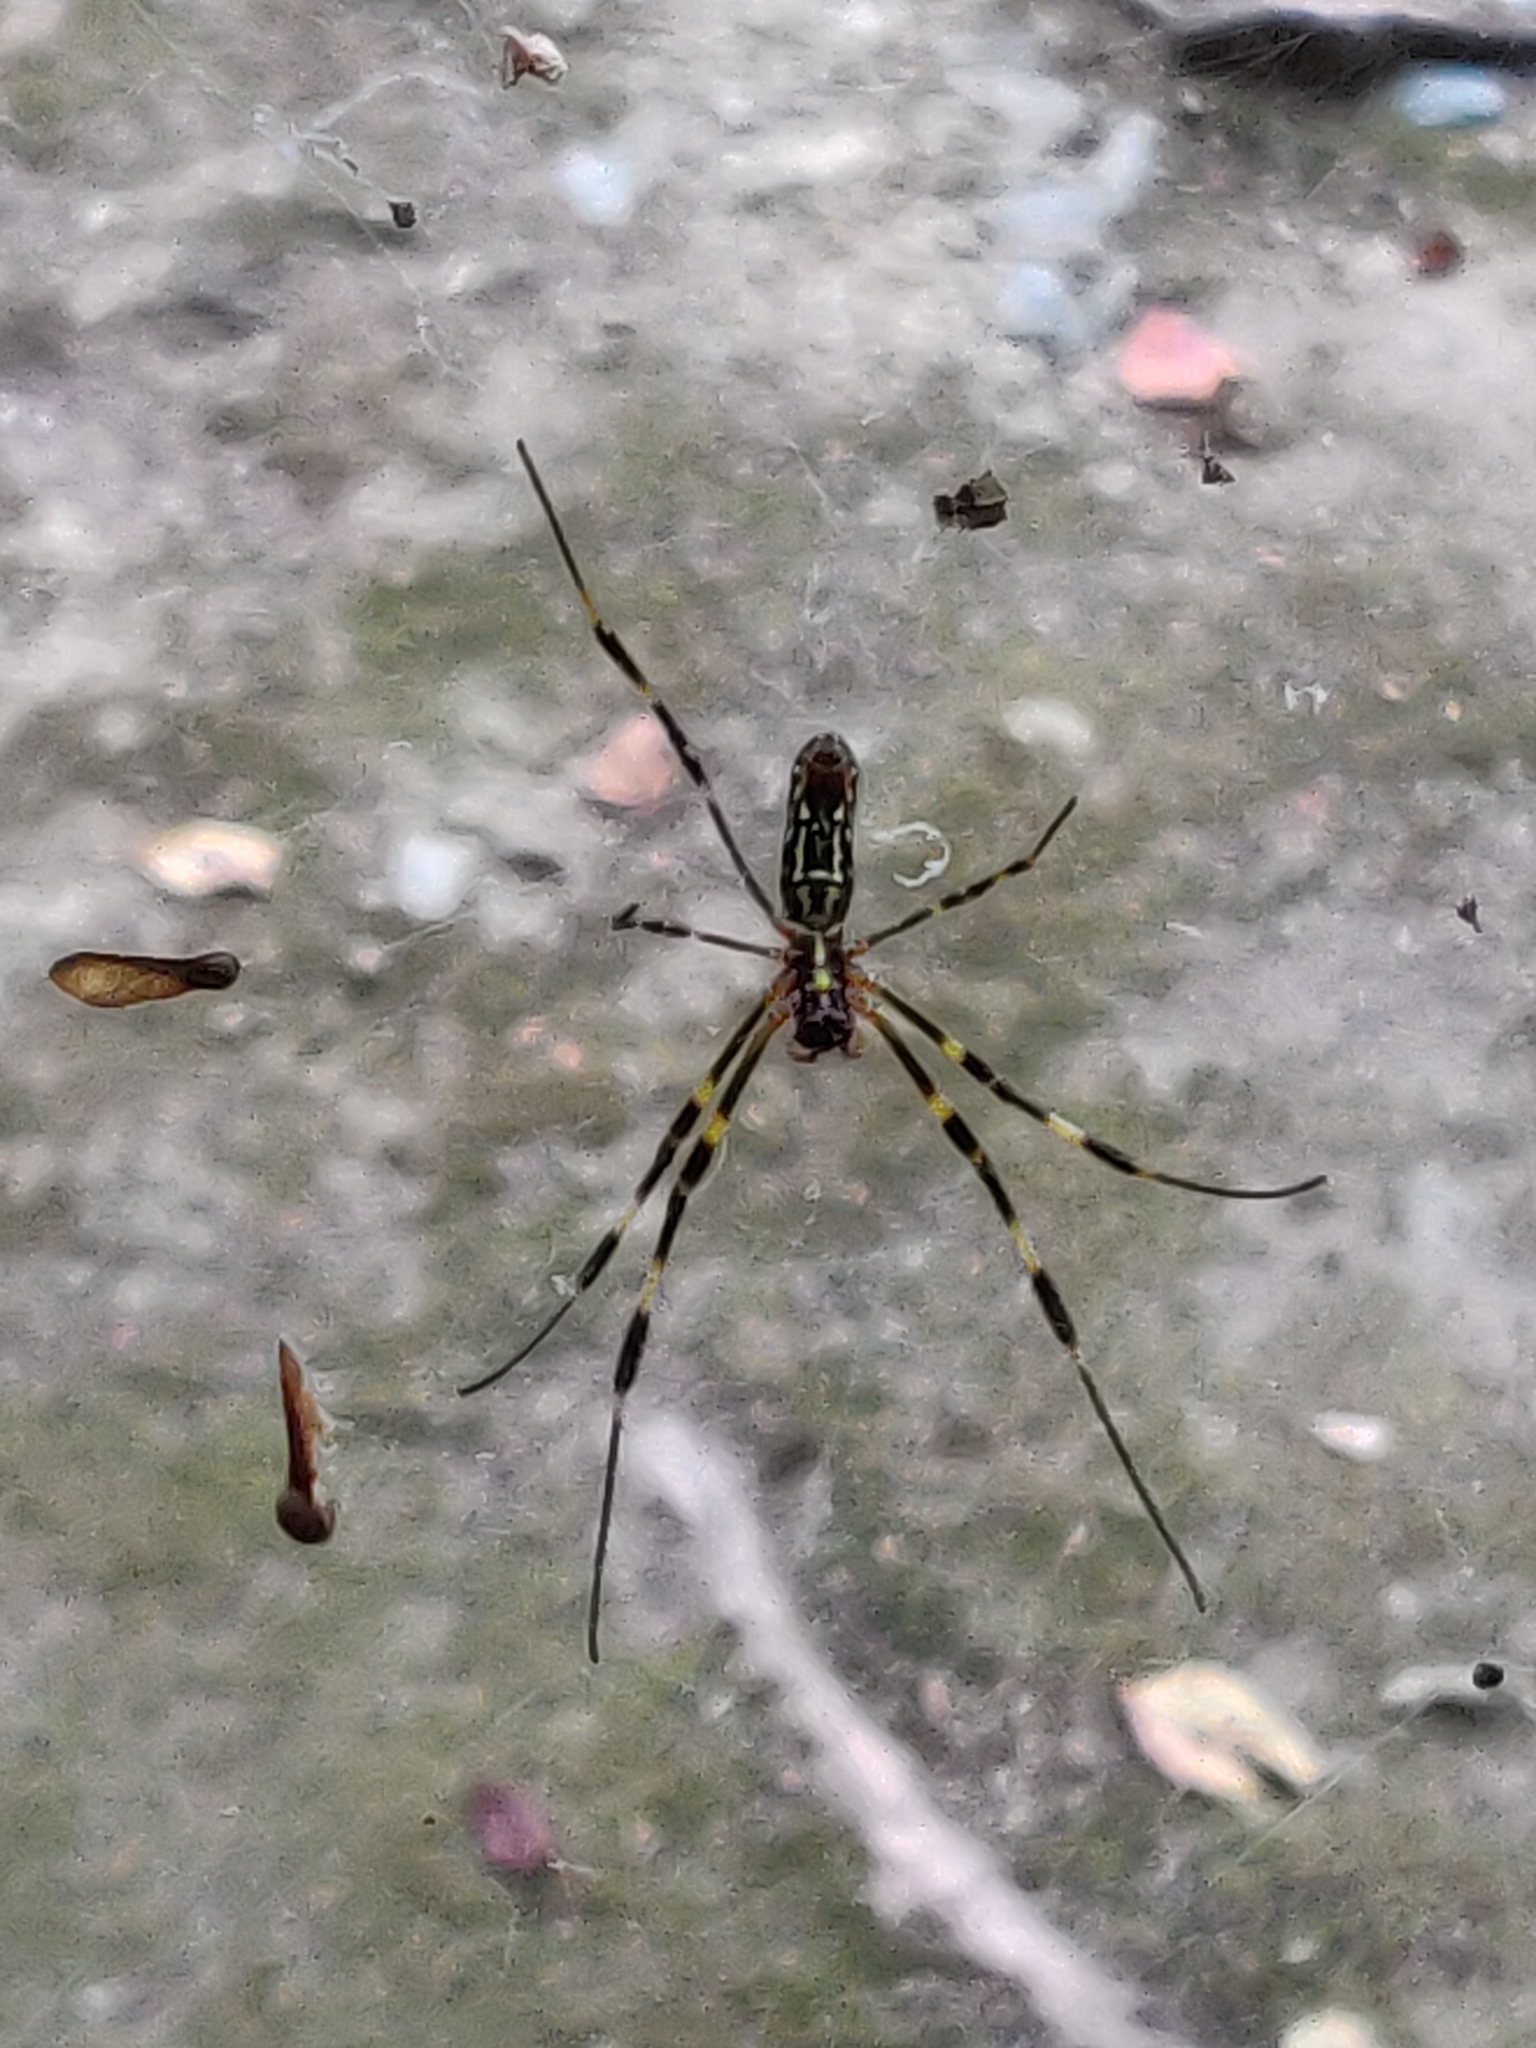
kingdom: Animalia
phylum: Arthropoda
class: Arachnida
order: Araneae
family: Araneidae
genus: Trichonephila
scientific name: Trichonephila clavata
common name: Jorō spider
